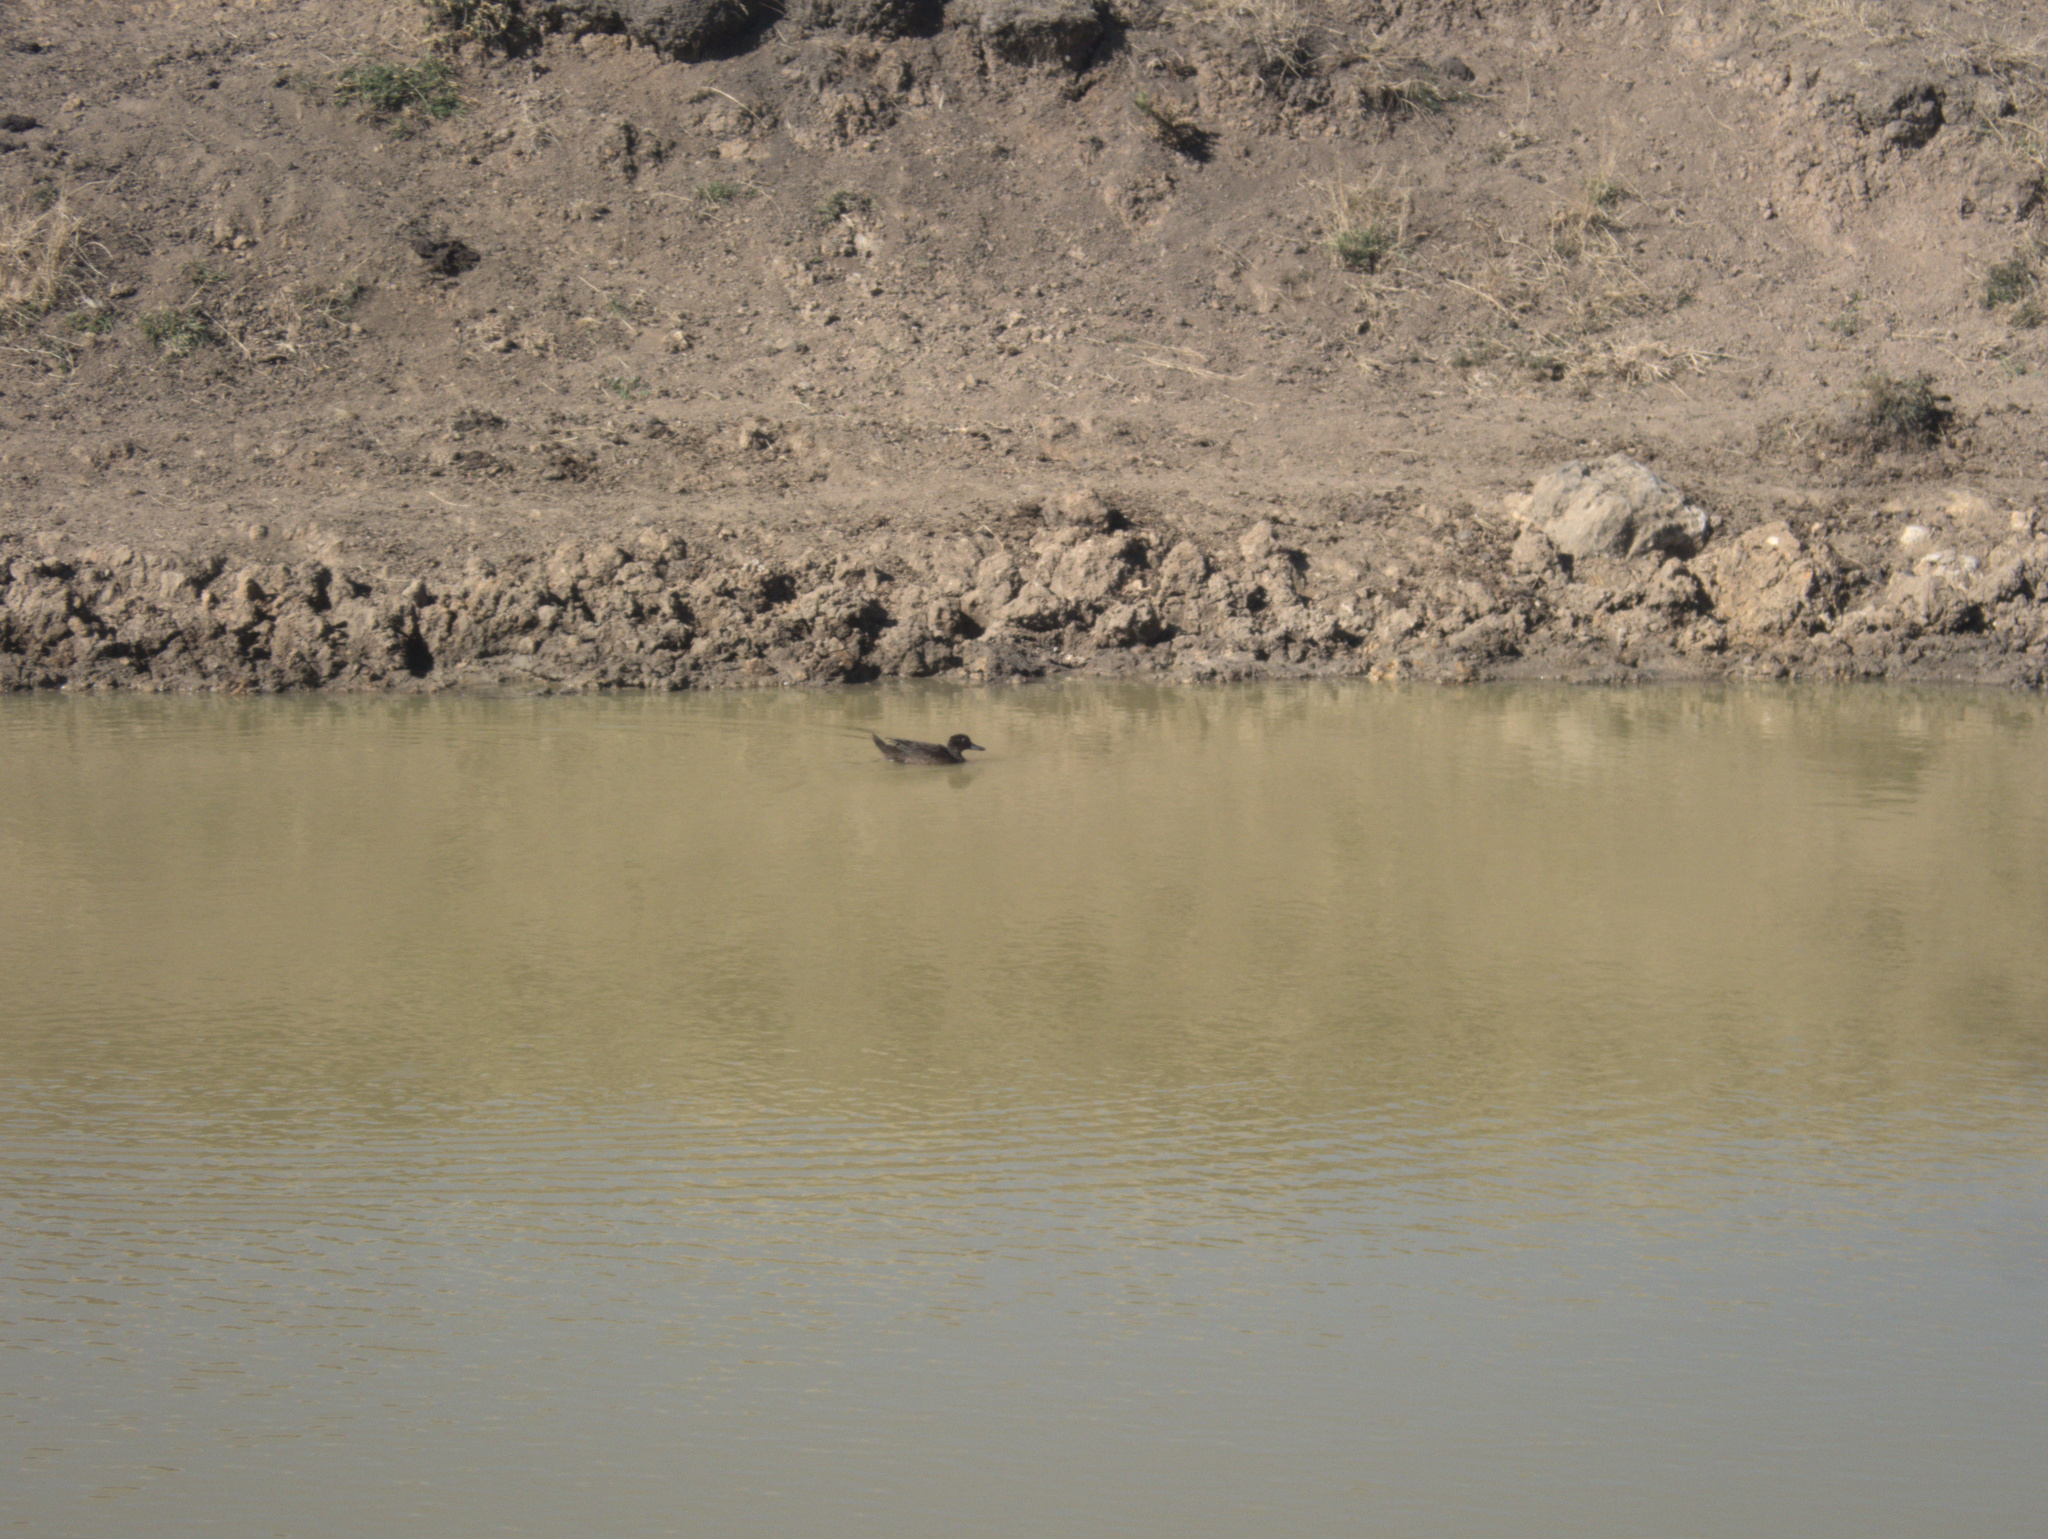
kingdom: Animalia
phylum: Chordata
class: Aves
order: Anseriformes
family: Anatidae
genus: Anas
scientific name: Anas chlorotis
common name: Brown teal
